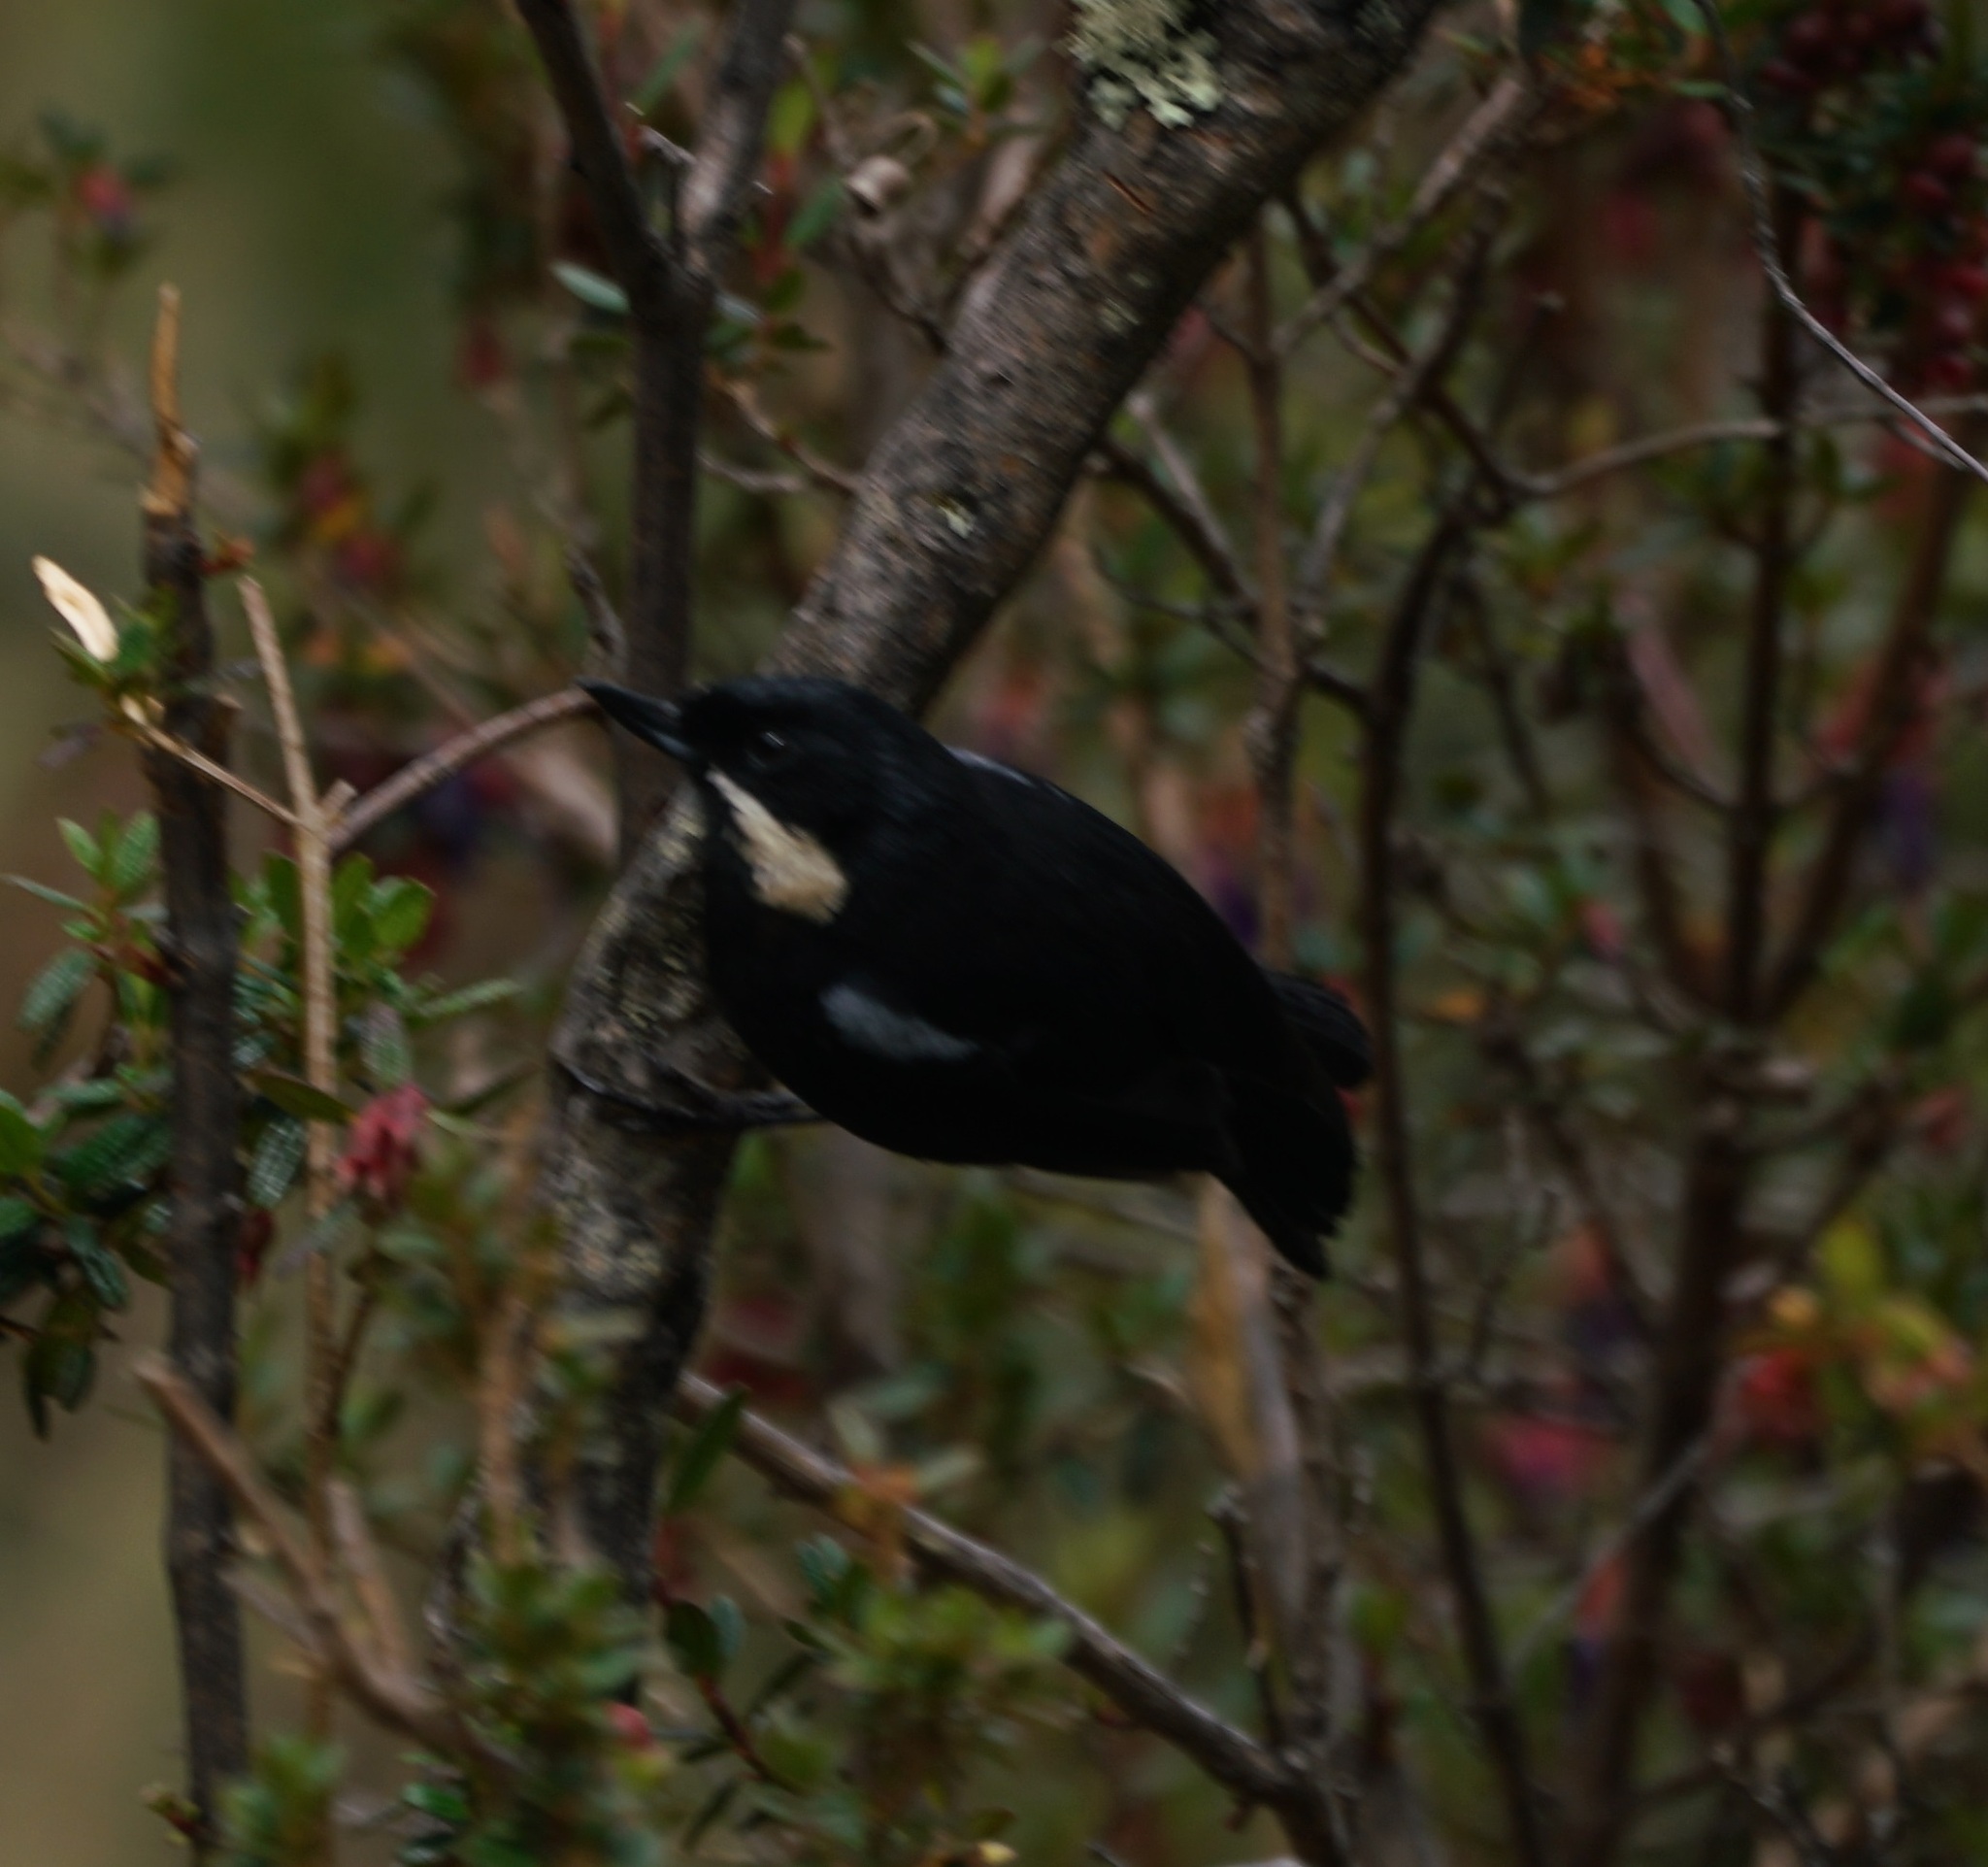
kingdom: Animalia
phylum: Chordata
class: Aves
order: Passeriformes
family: Thraupidae
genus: Diglossa
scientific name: Diglossa mystacalis
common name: Moustached flowerpiercer
